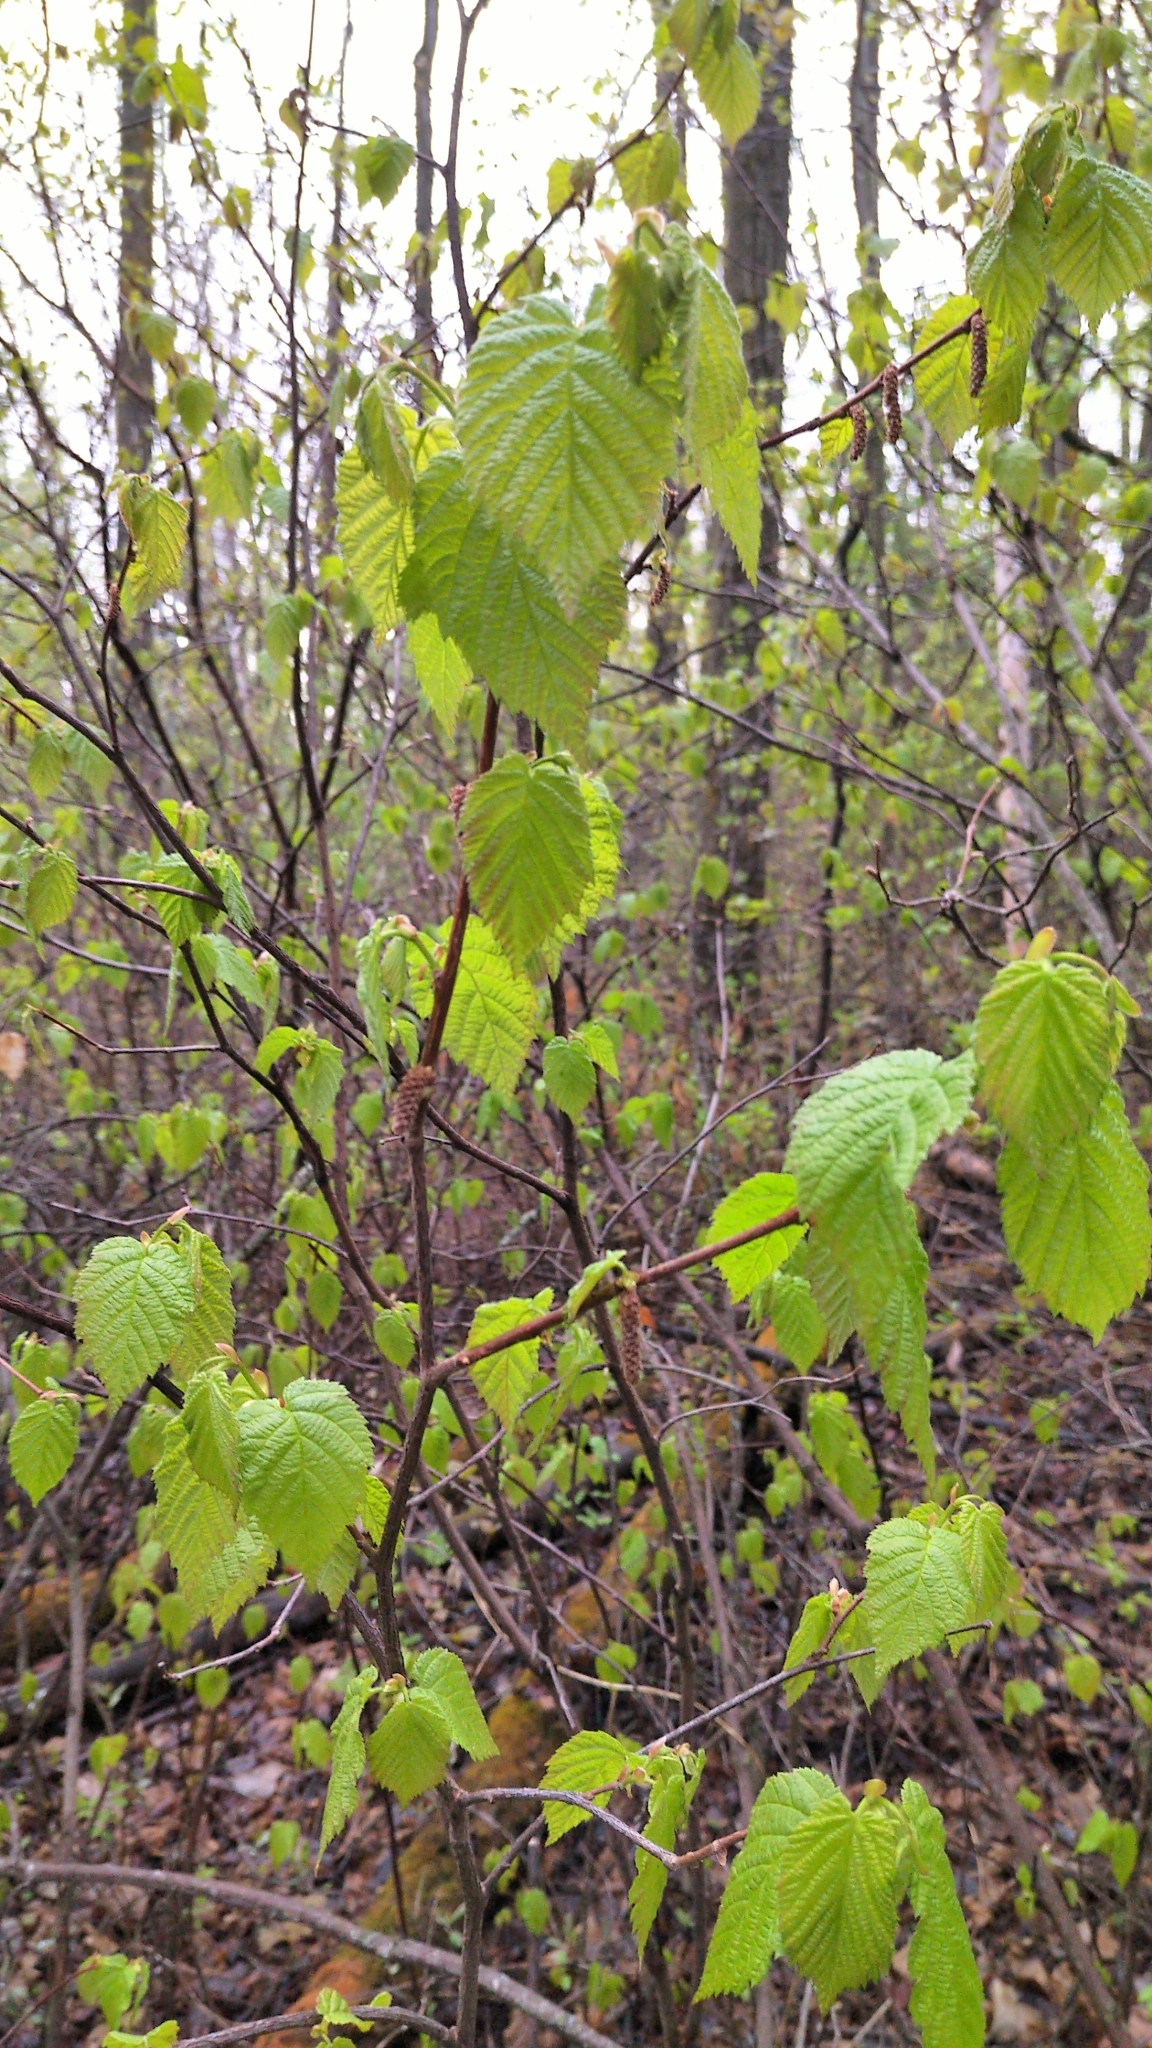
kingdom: Plantae
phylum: Tracheophyta
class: Magnoliopsida
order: Fagales
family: Betulaceae
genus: Corylus
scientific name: Corylus cornuta
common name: Beaked hazel
